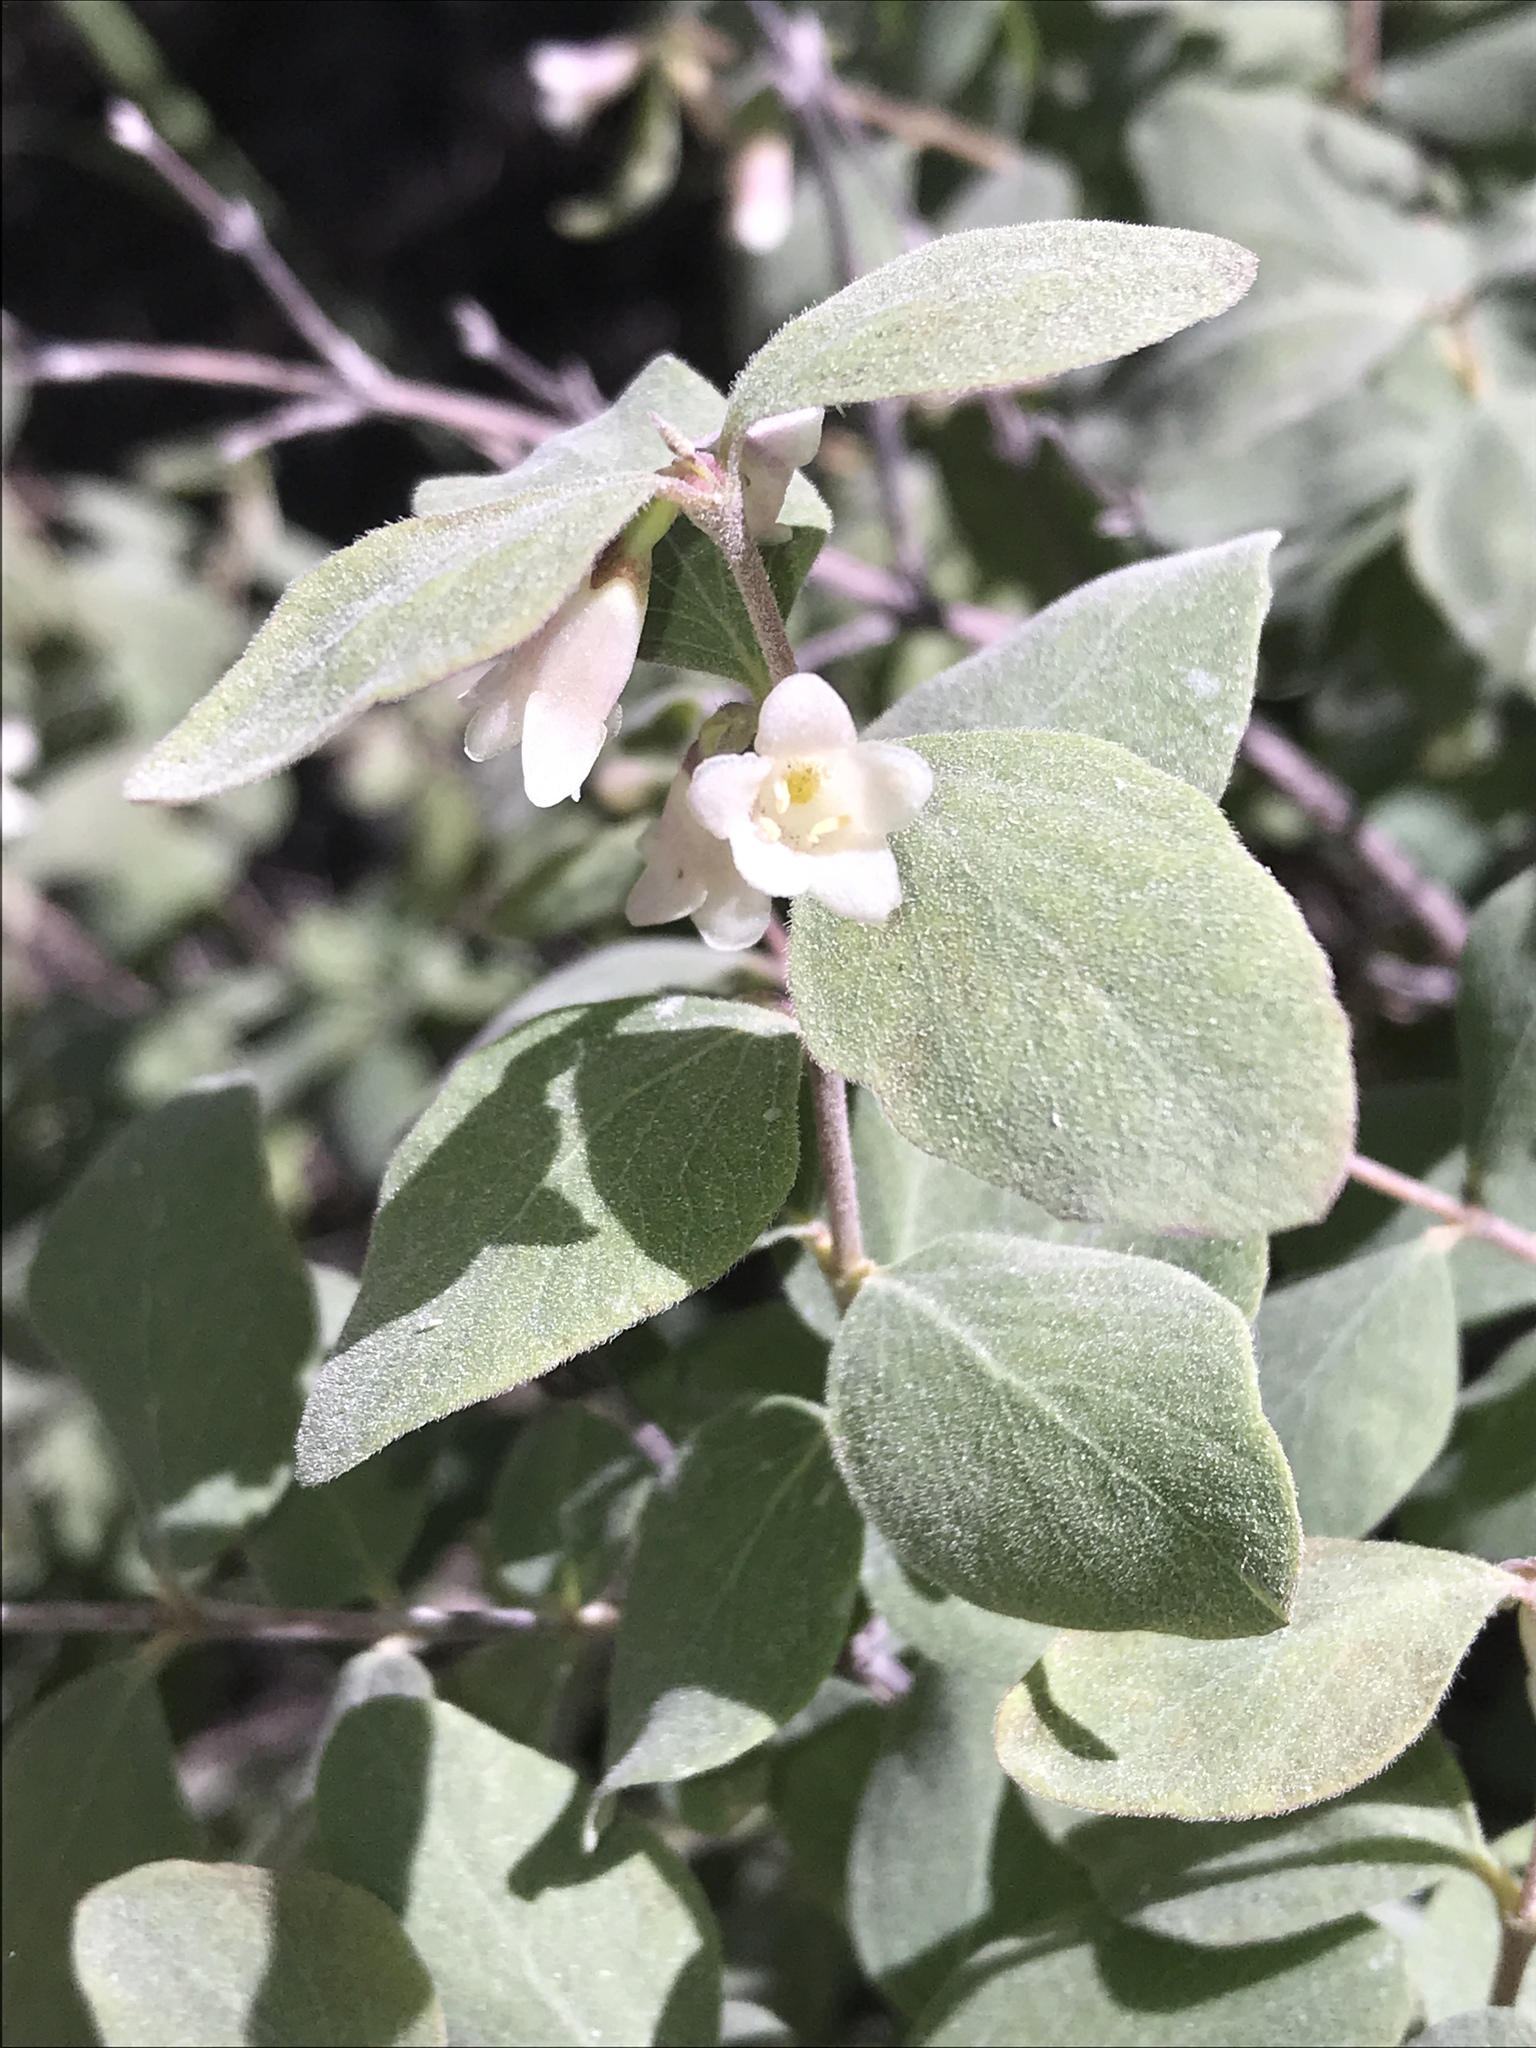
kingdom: Plantae
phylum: Tracheophyta
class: Magnoliopsida
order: Dipsacales
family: Caprifoliaceae
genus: Symphoricarpos
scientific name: Symphoricarpos albus
